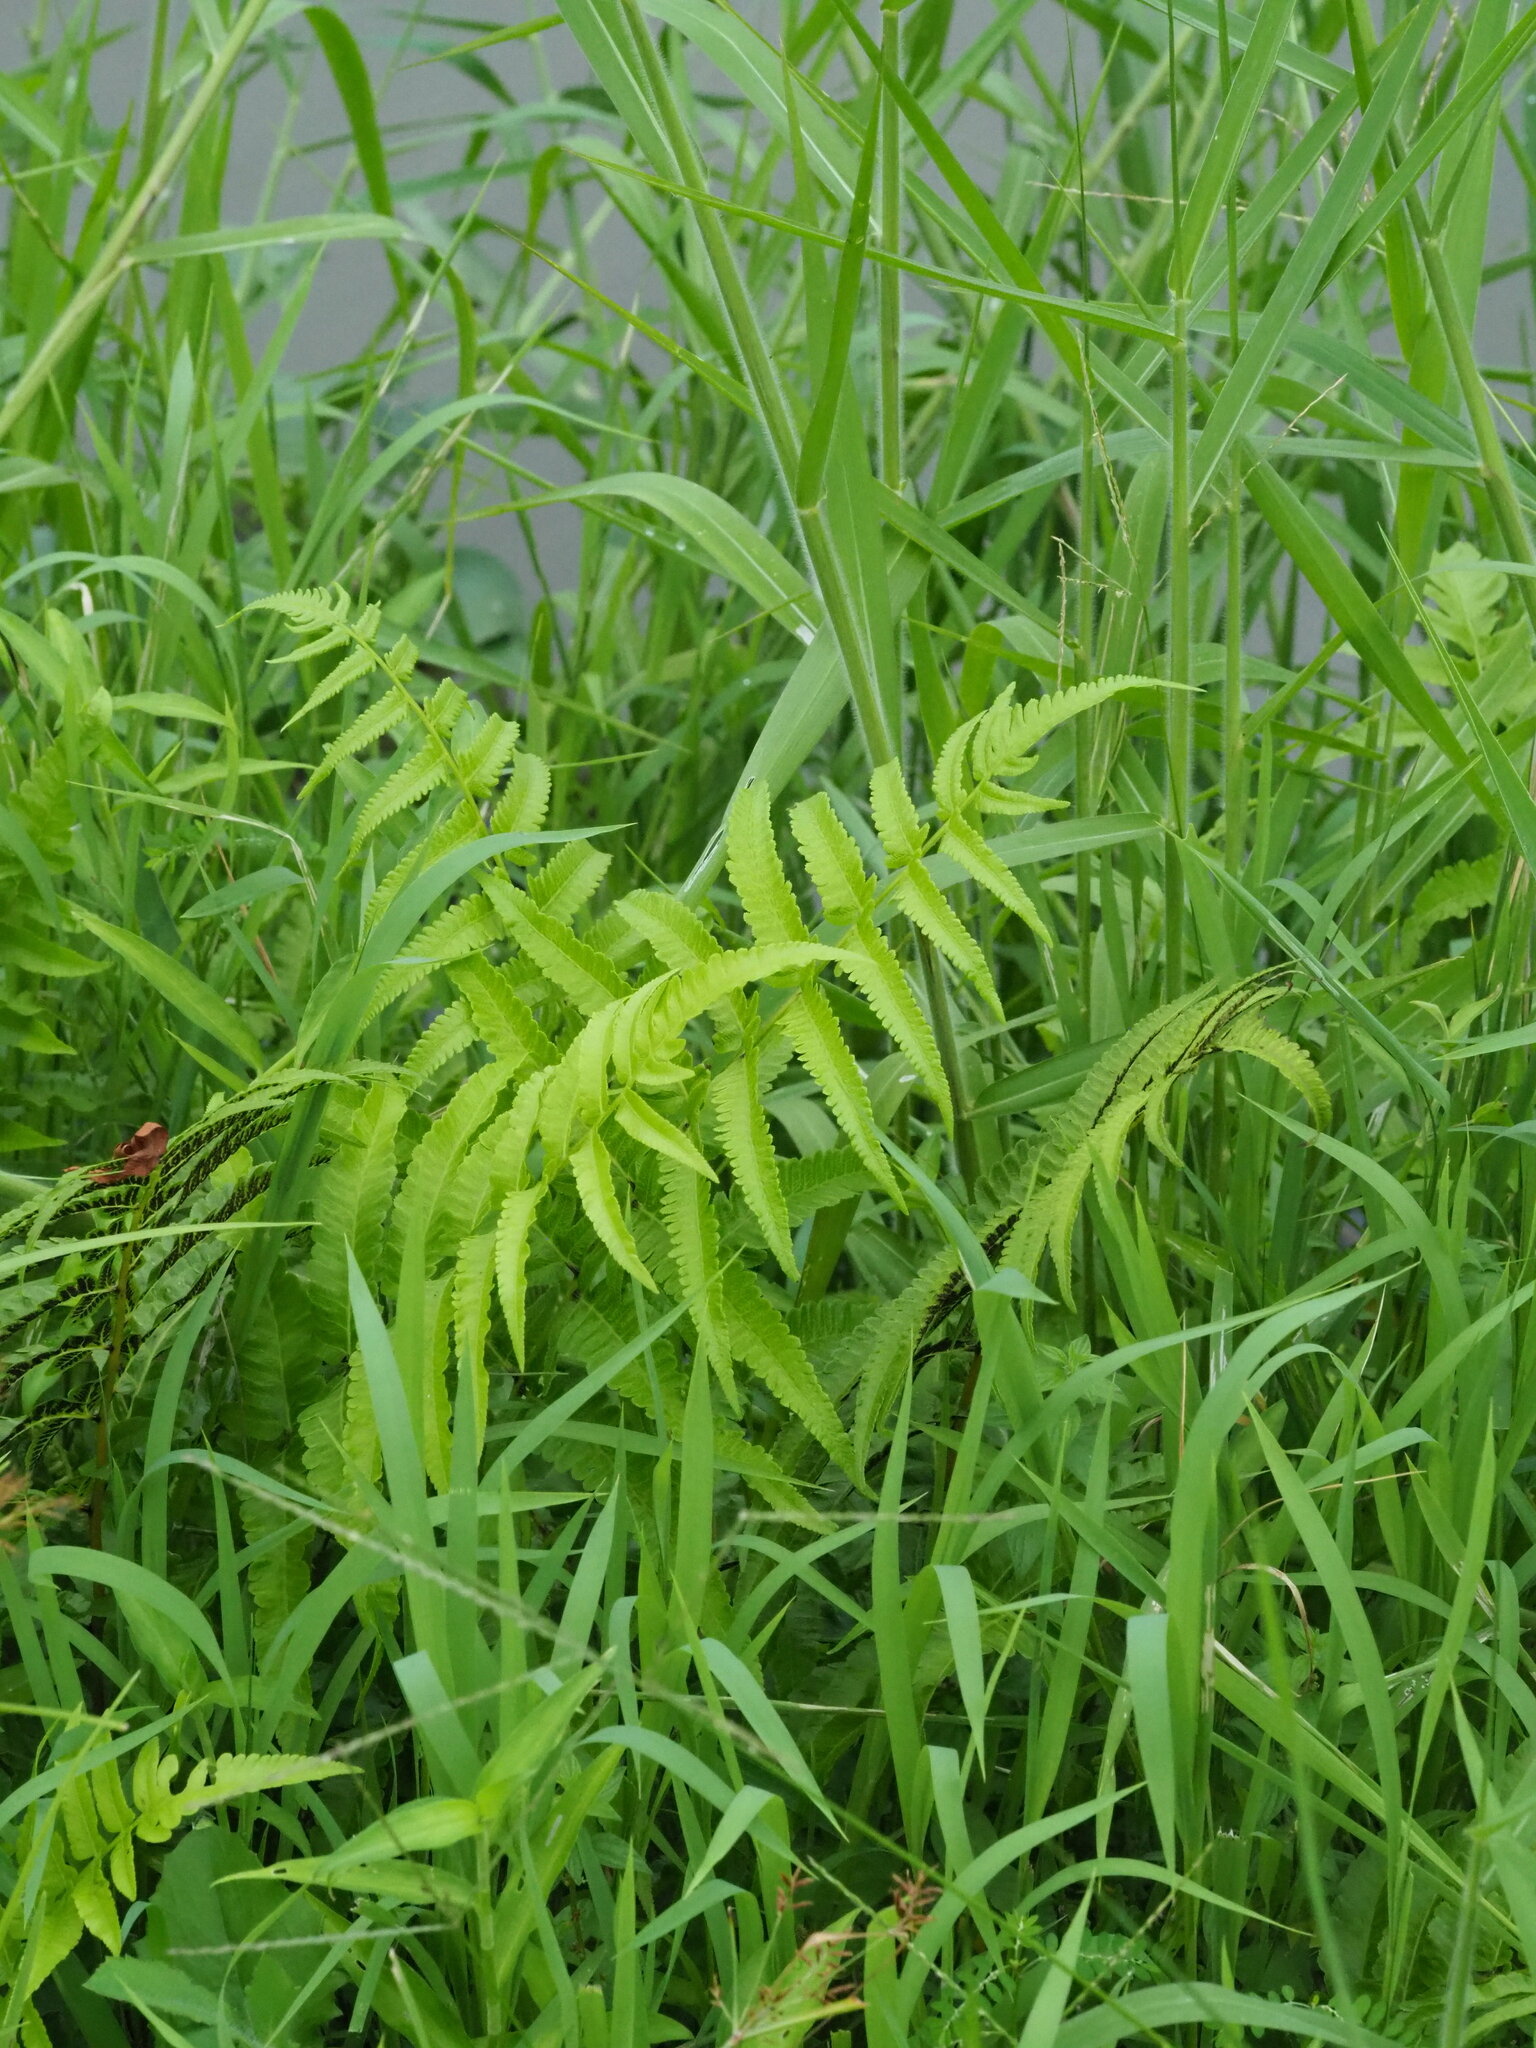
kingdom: Plantae
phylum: Tracheophyta
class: Polypodiopsida
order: Polypodiales
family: Athyriaceae
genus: Diplazium
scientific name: Diplazium esculentum
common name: Vegetable fern
